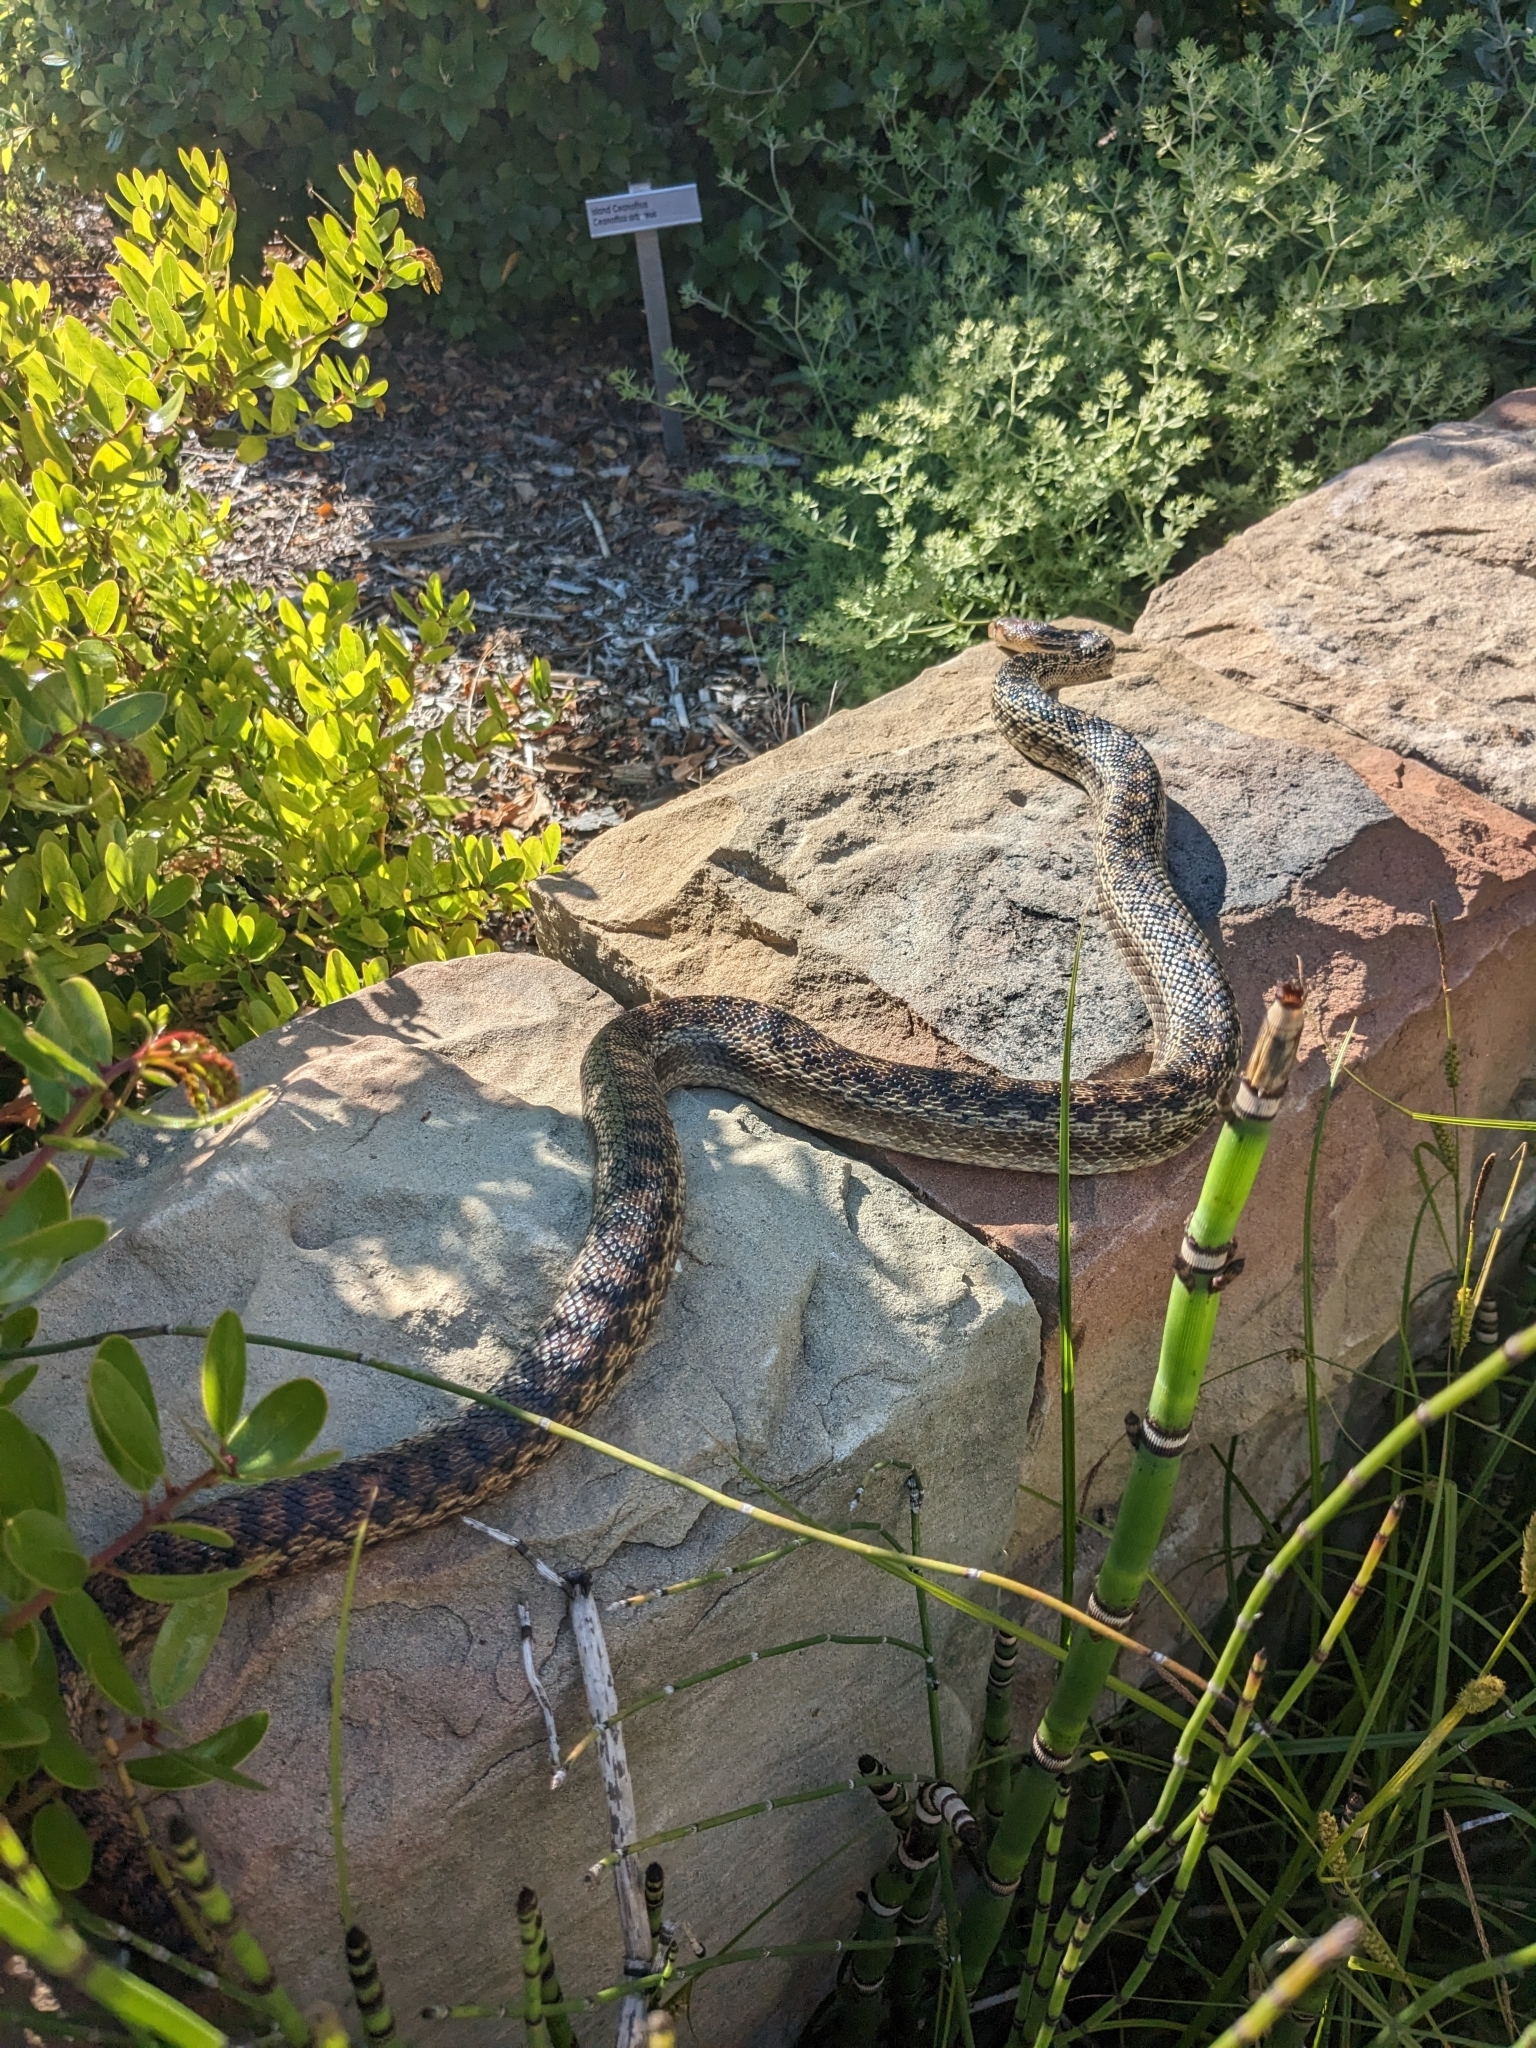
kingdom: Animalia
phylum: Chordata
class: Squamata
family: Colubridae
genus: Pituophis
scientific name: Pituophis catenifer
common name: Gopher snake
